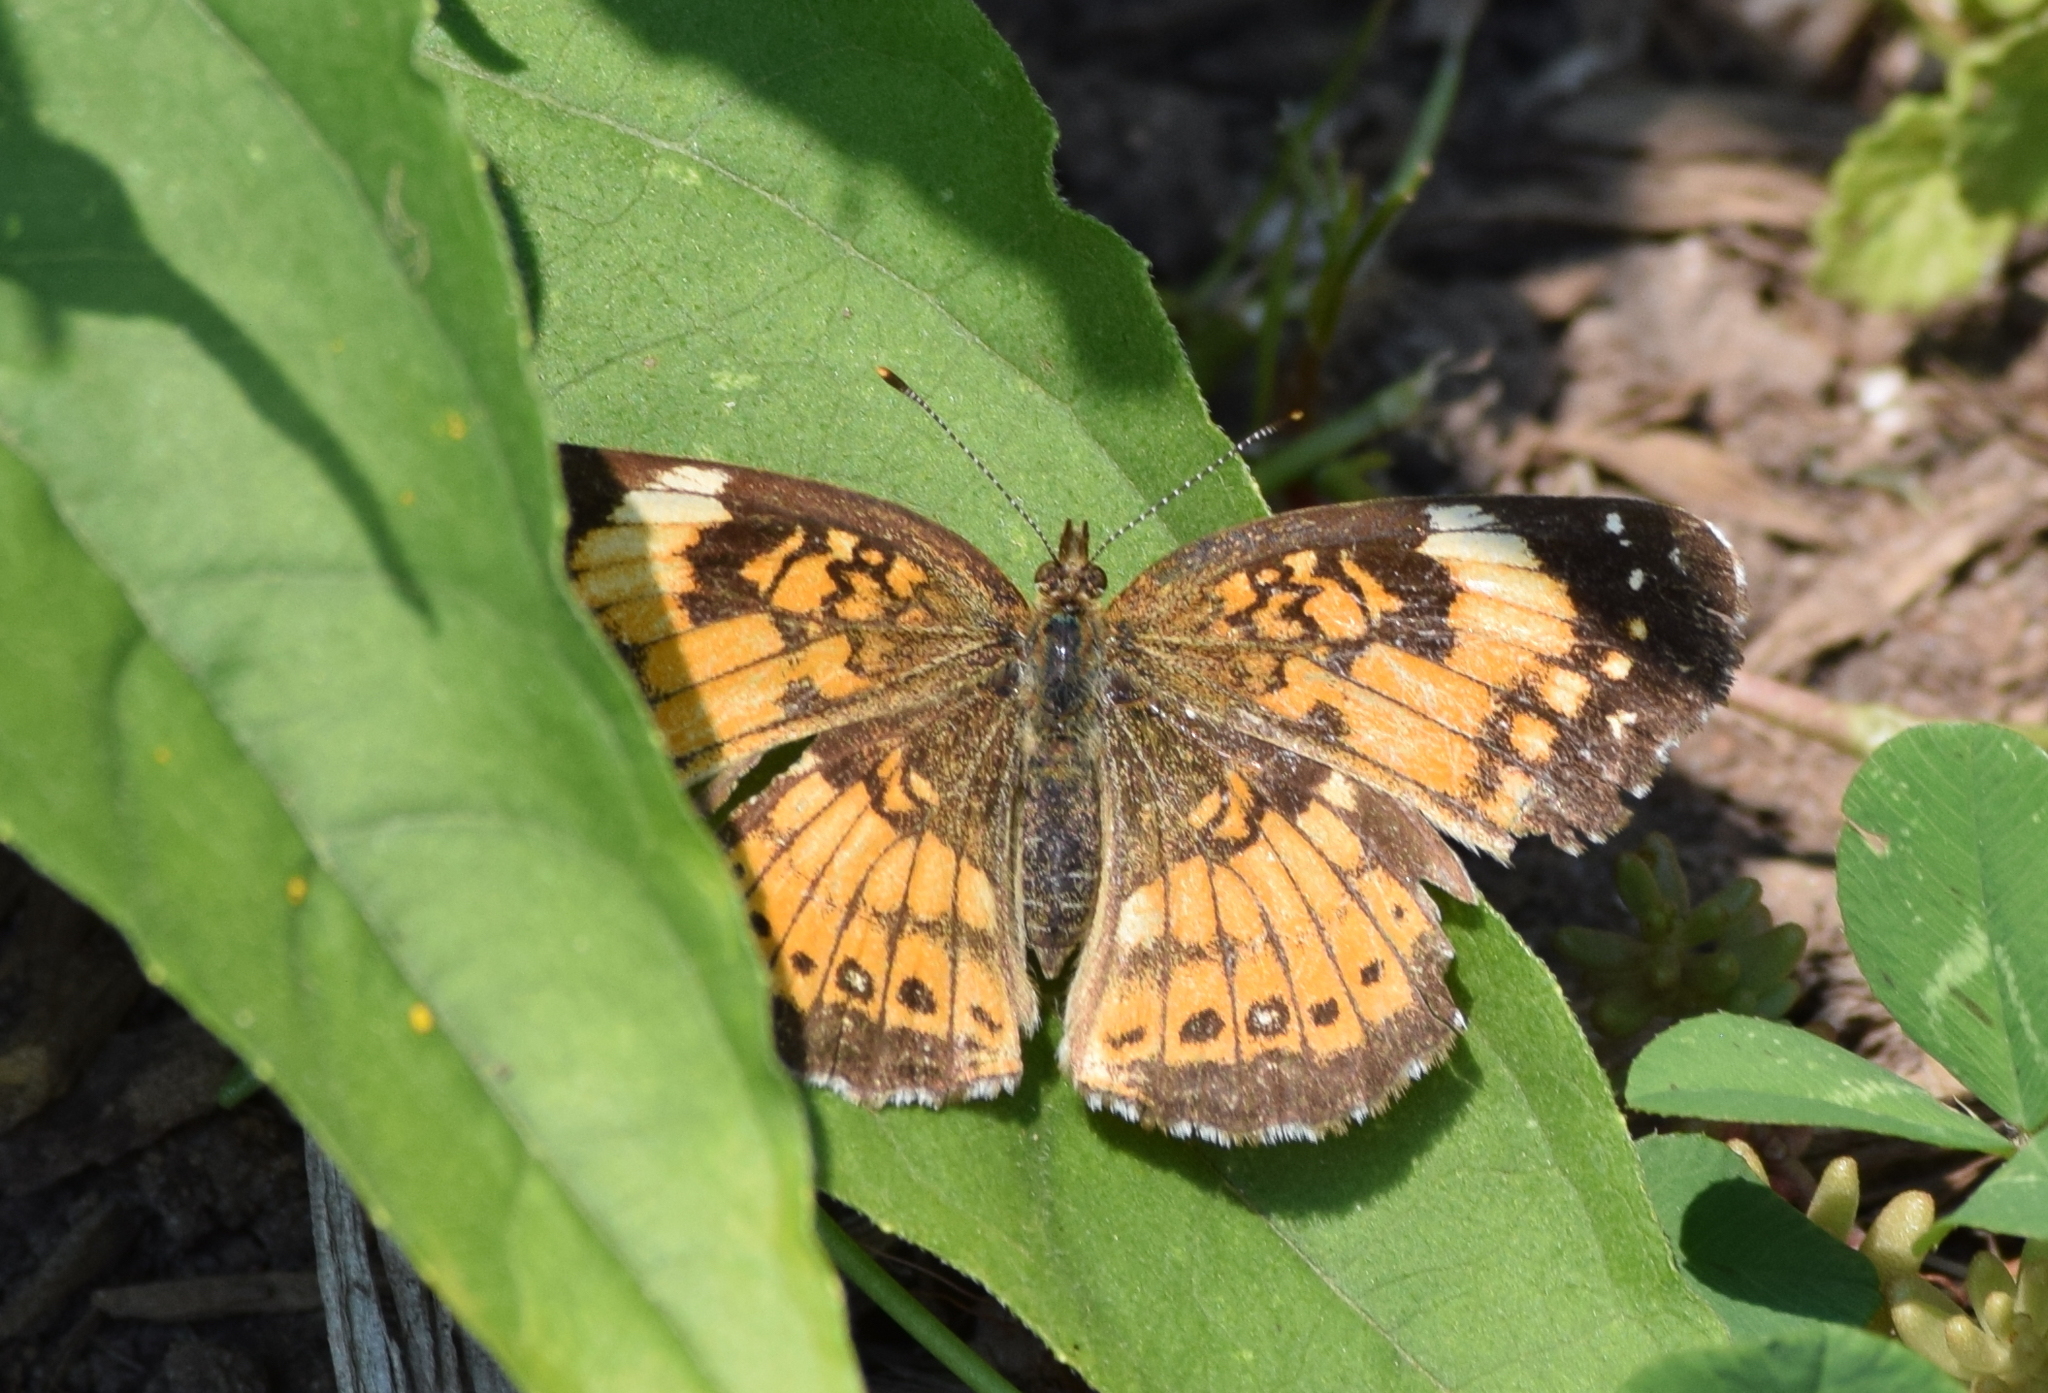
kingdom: Animalia
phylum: Arthropoda
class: Insecta
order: Lepidoptera
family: Nymphalidae
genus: Chlosyne
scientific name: Chlosyne nycteis
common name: Silvery checkerspot
